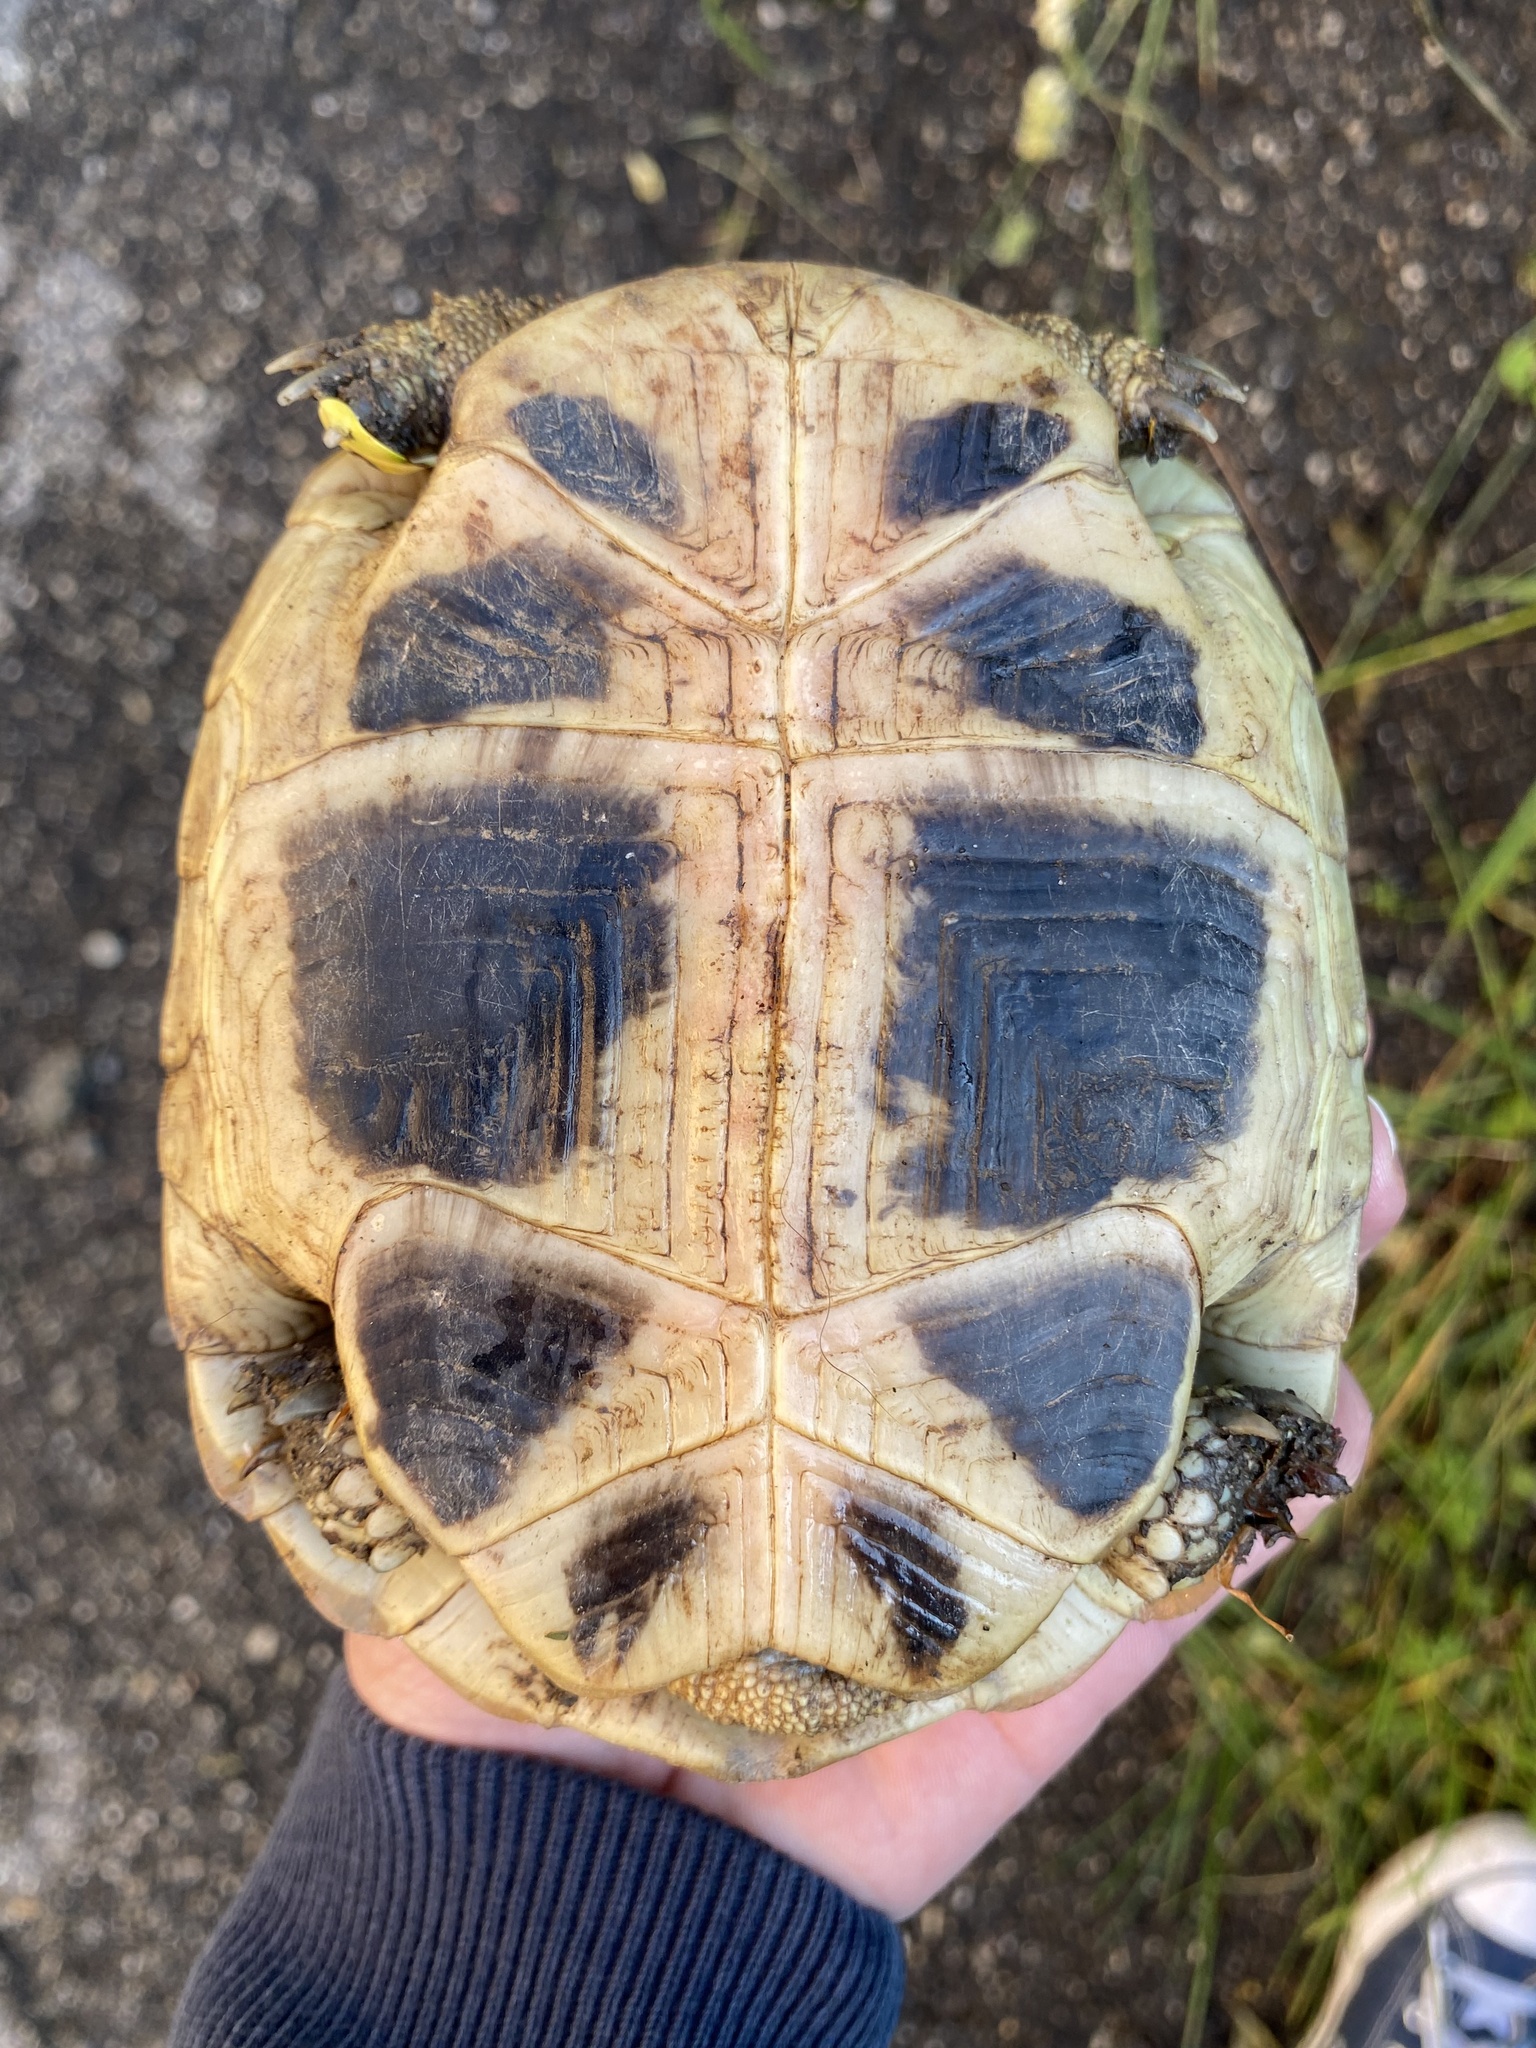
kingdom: Animalia
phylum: Chordata
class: Testudines
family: Testudinidae
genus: Testudo
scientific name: Testudo hermanni
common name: Hermann's tortoise
